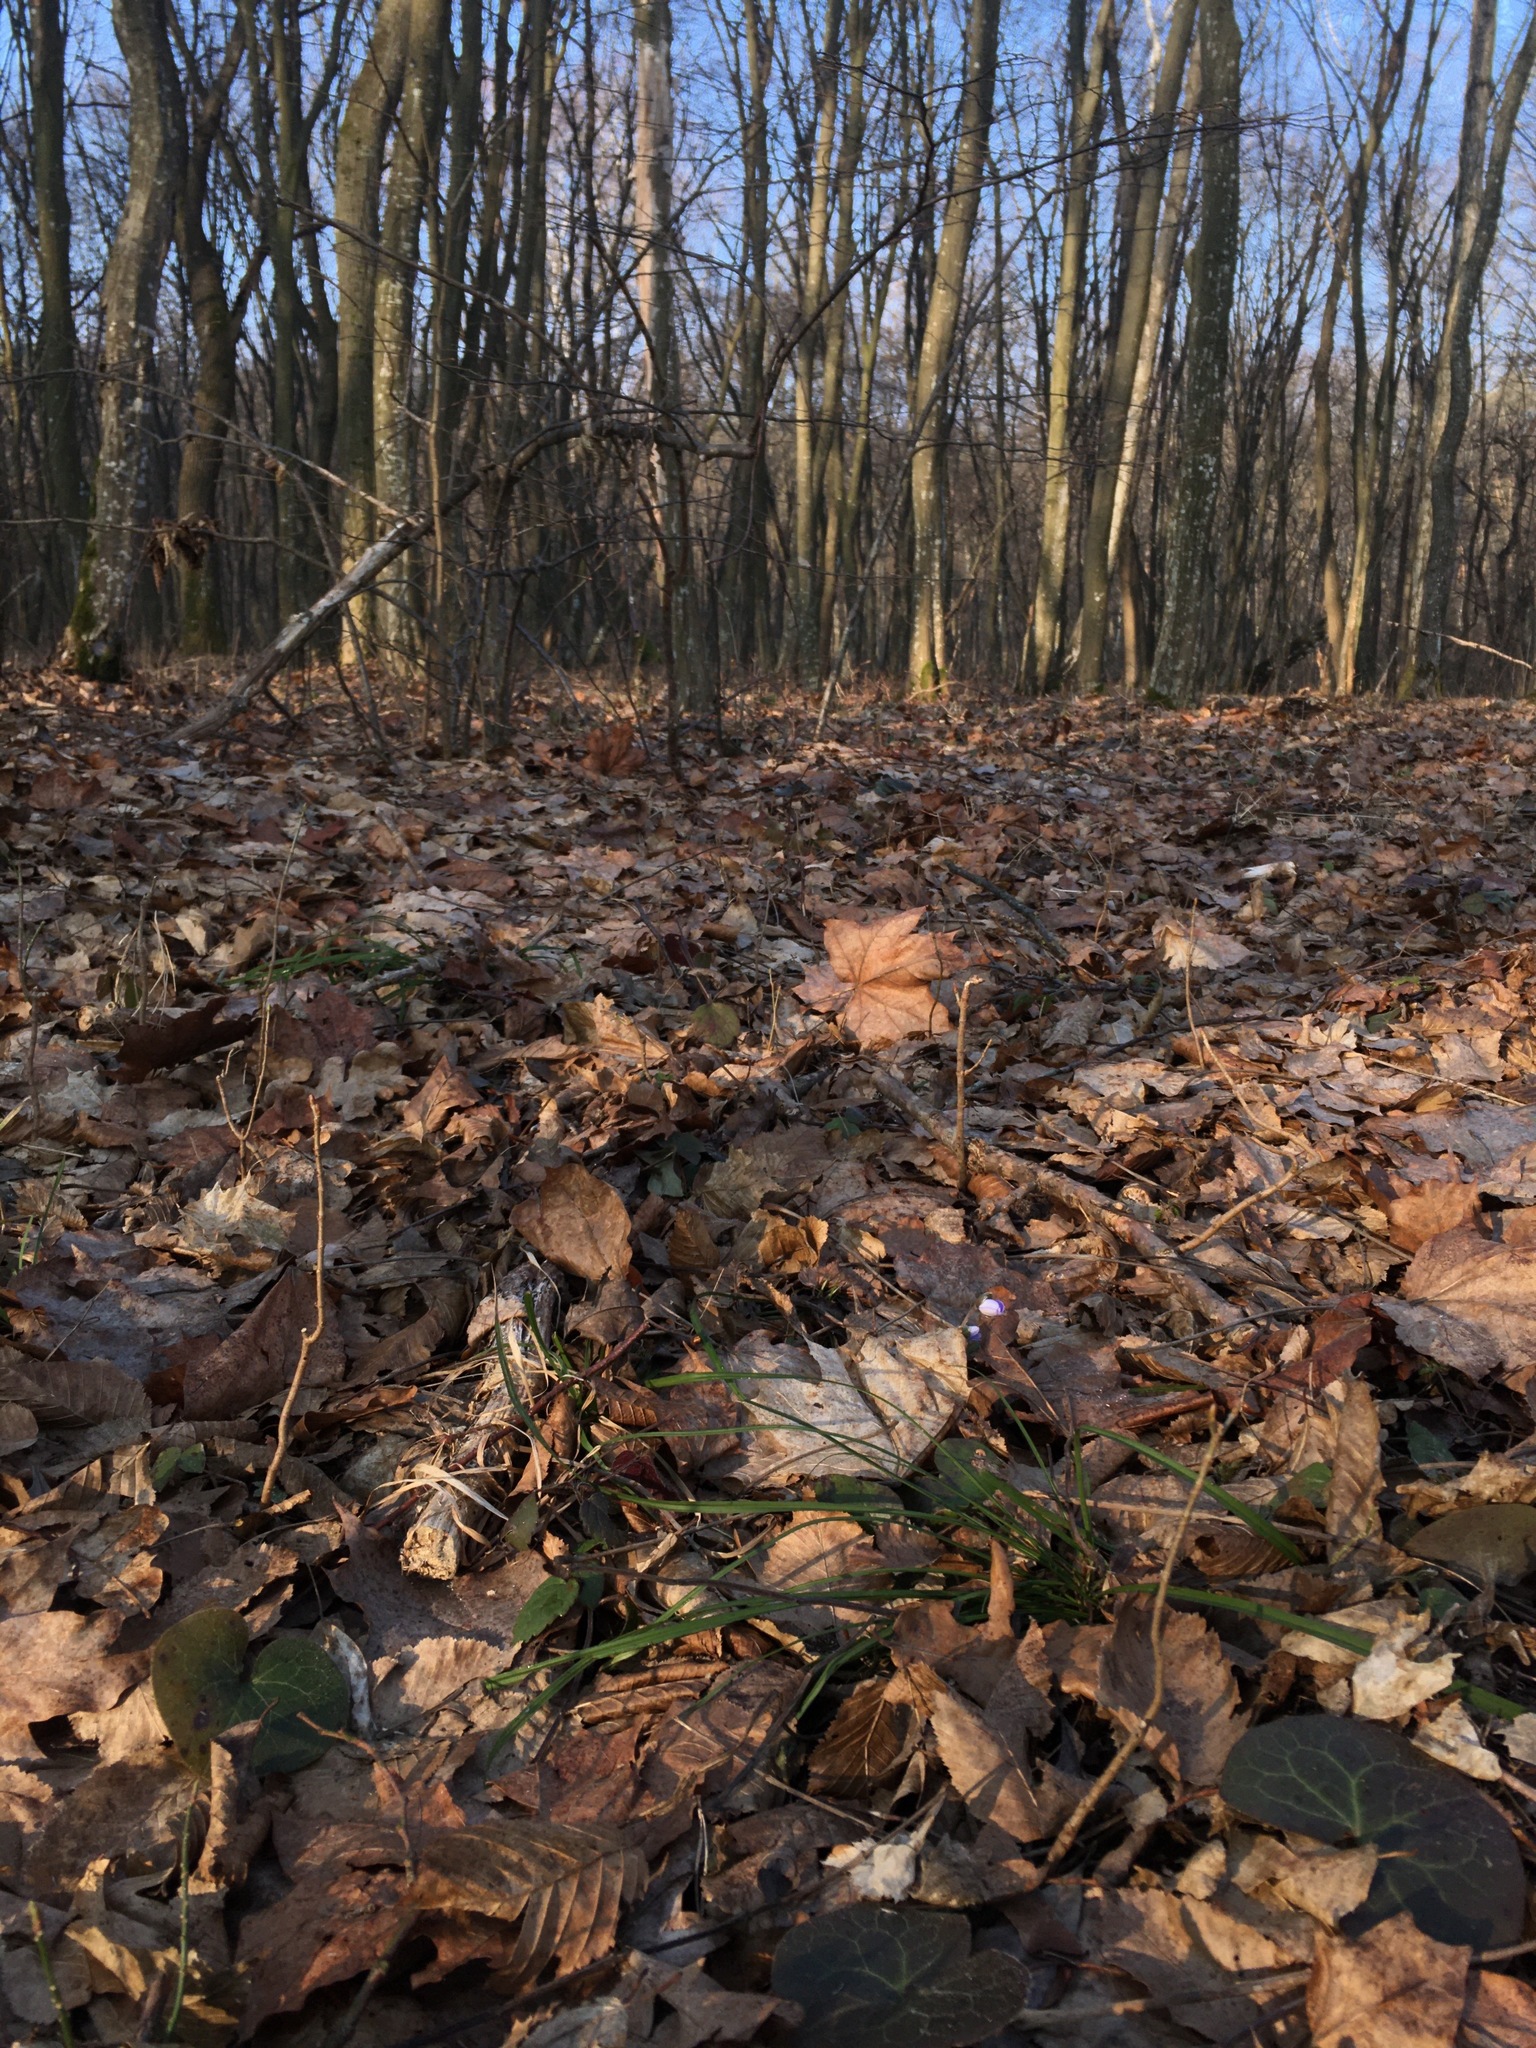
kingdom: Plantae
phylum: Tracheophyta
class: Magnoliopsida
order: Ranunculales
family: Ranunculaceae
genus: Hepatica
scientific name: Hepatica nobilis
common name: Liverleaf
